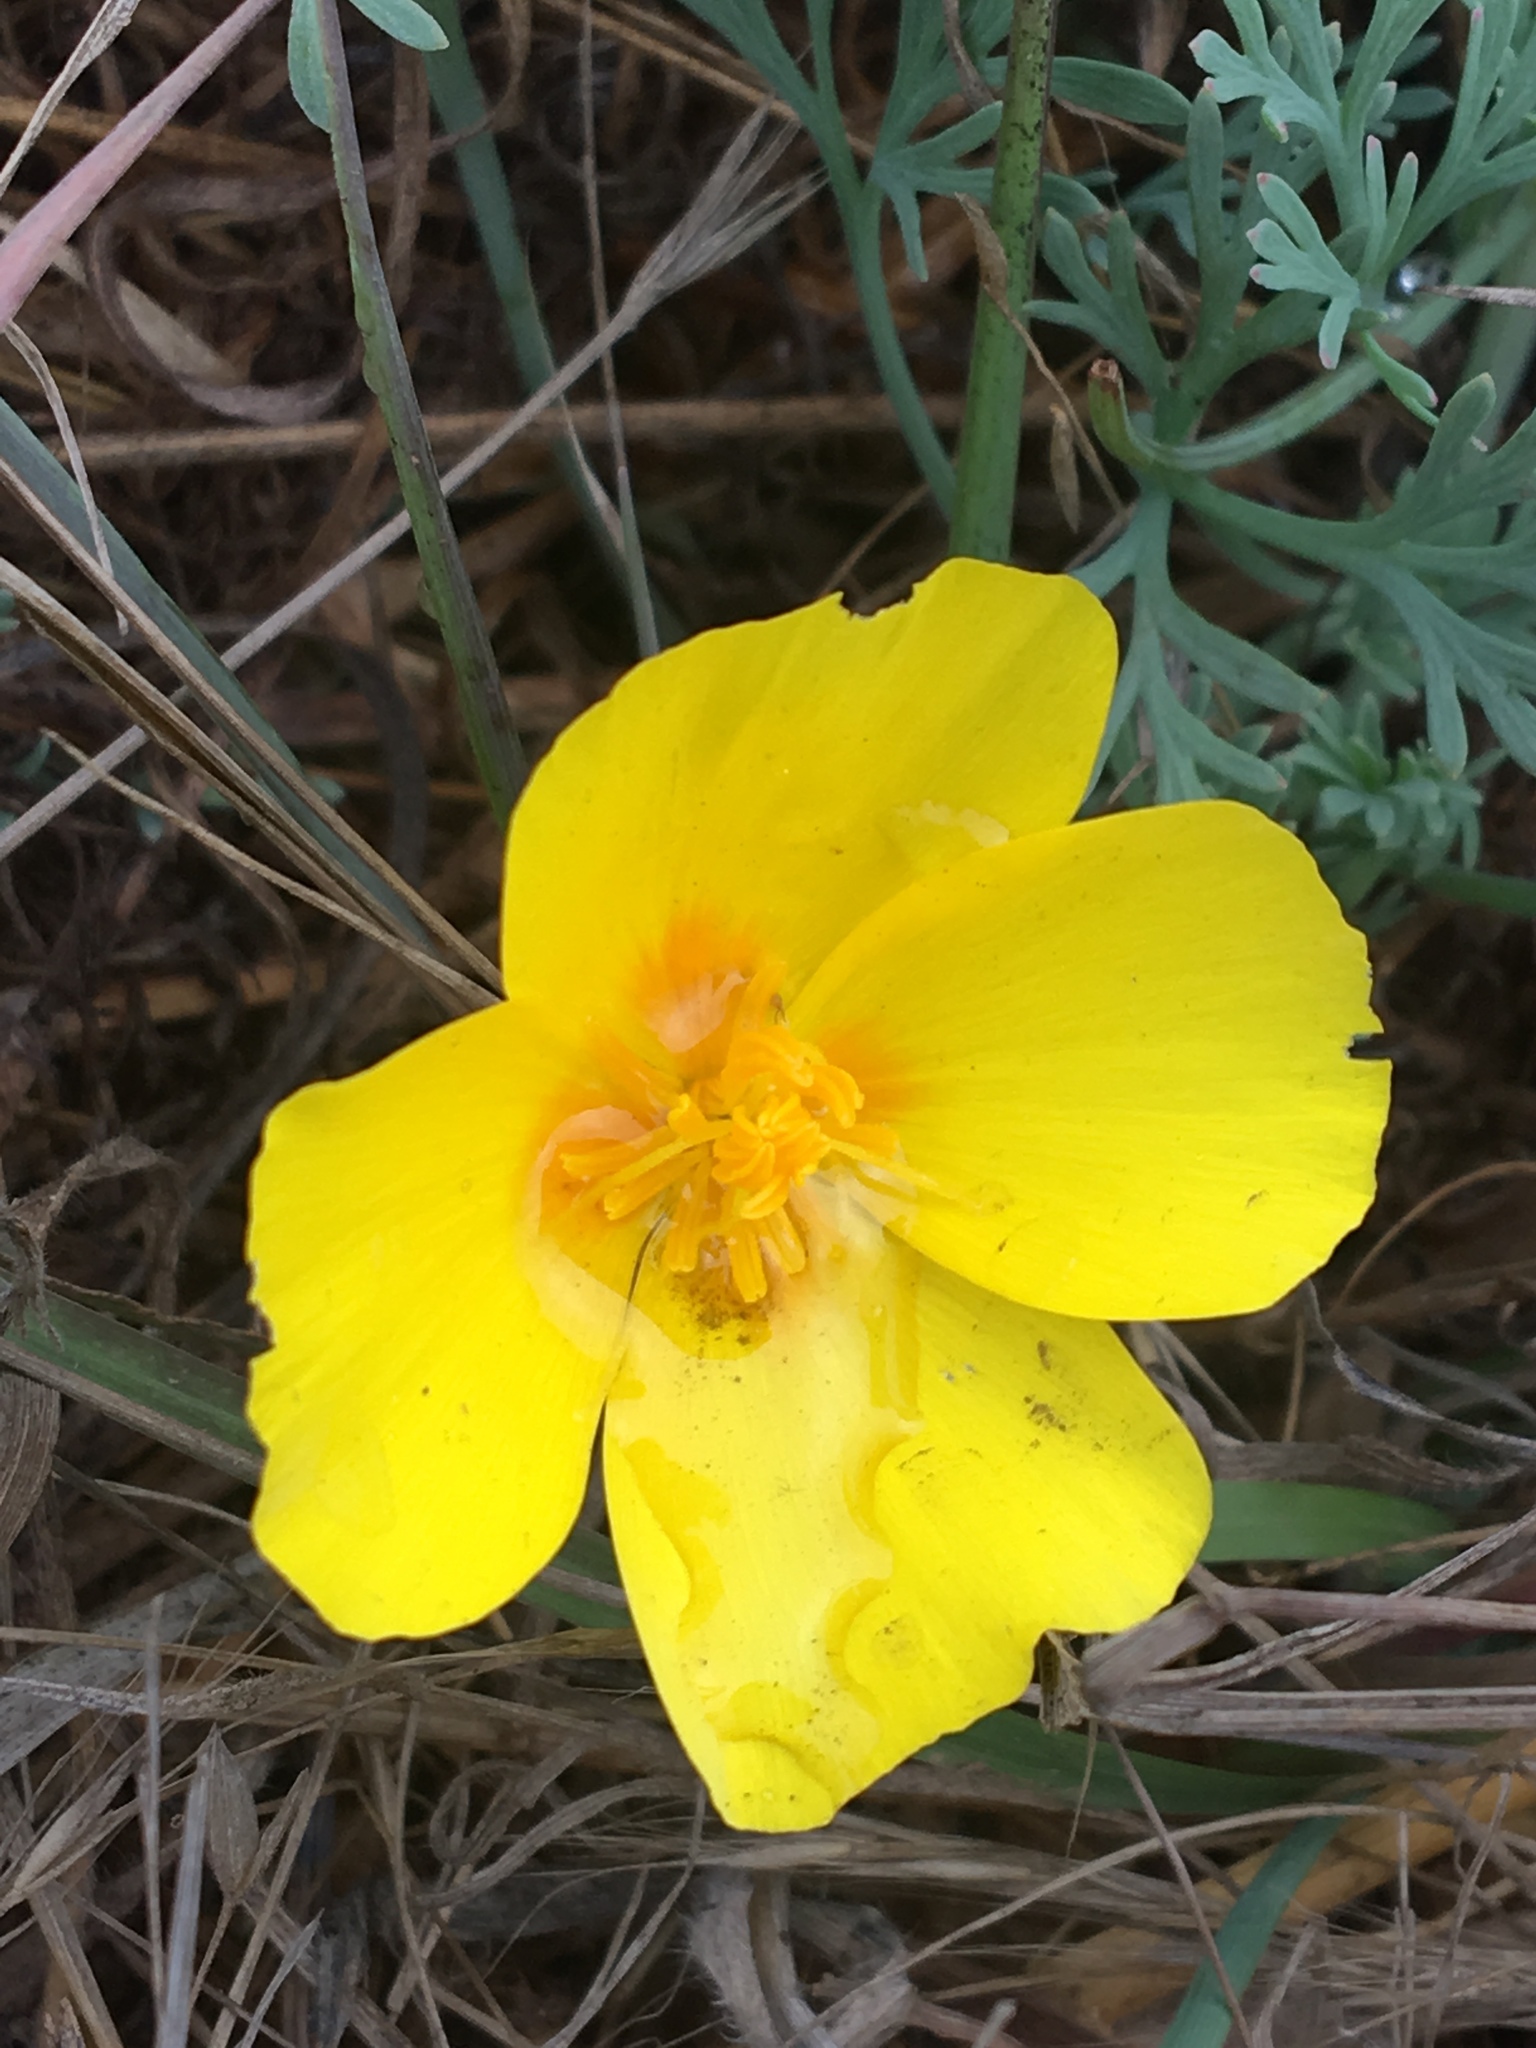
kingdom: Plantae
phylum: Tracheophyta
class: Magnoliopsida
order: Ranunculales
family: Papaveraceae
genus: Eschscholzia
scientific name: Eschscholzia californica
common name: California poppy
